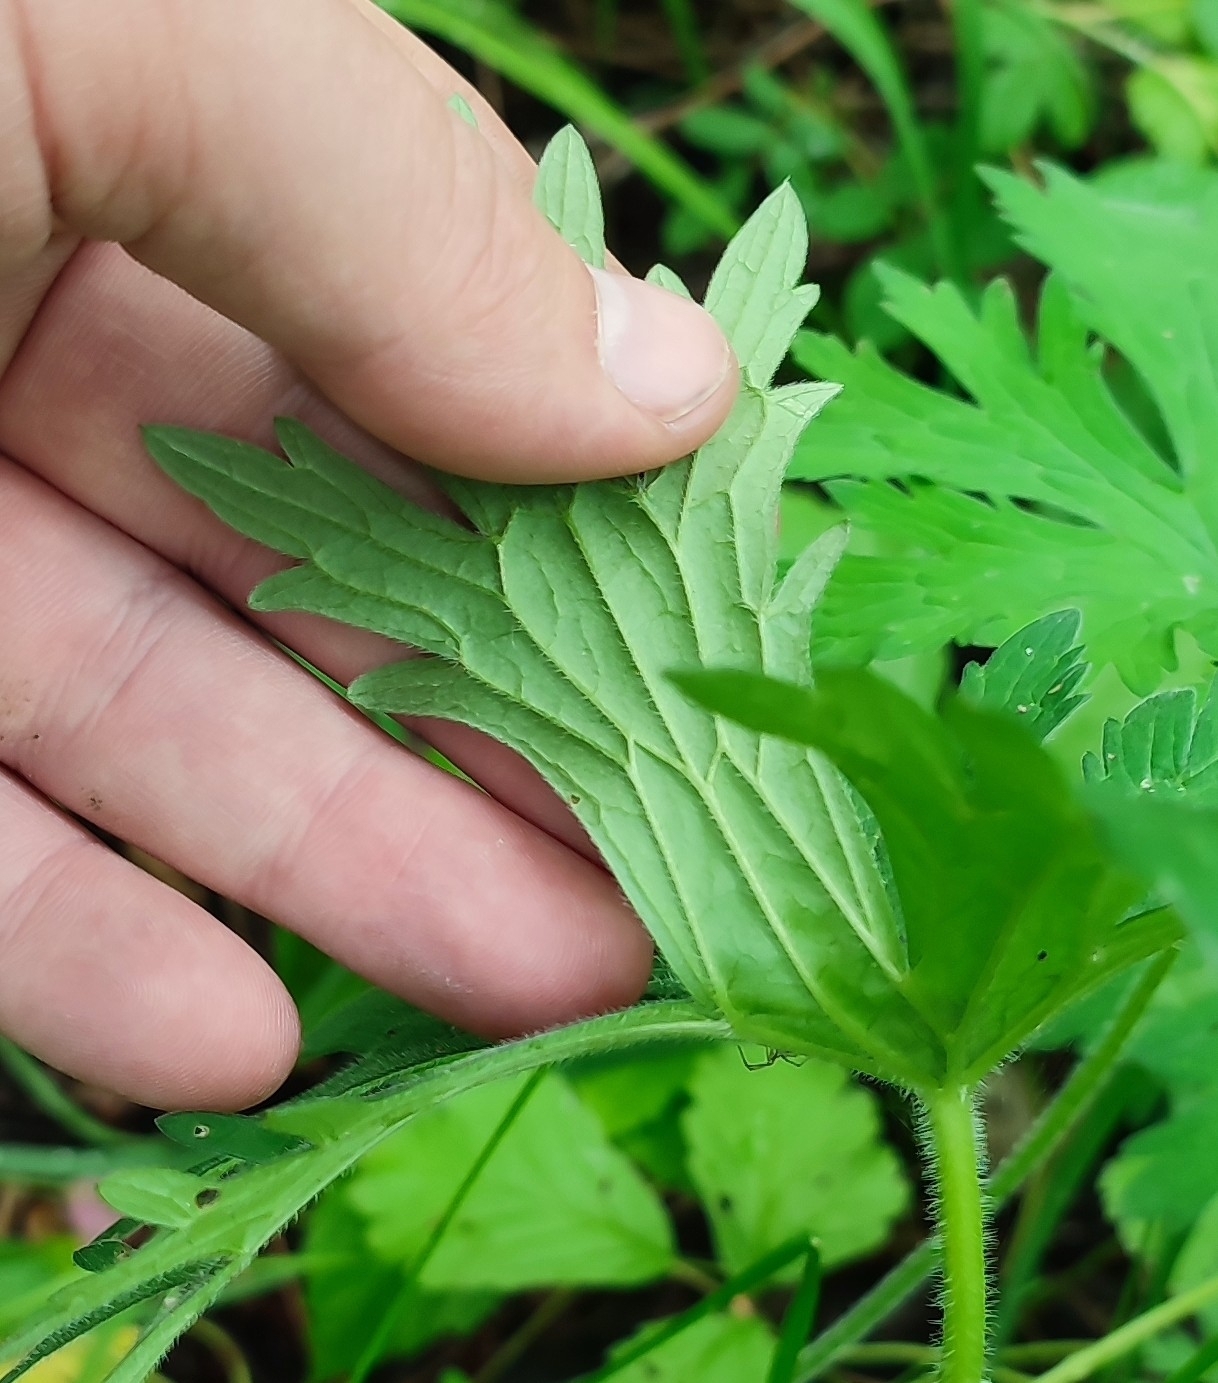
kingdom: Plantae
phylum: Tracheophyta
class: Magnoliopsida
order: Geraniales
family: Geraniaceae
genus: Geranium
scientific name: Geranium pratense
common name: Meadow crane's-bill
